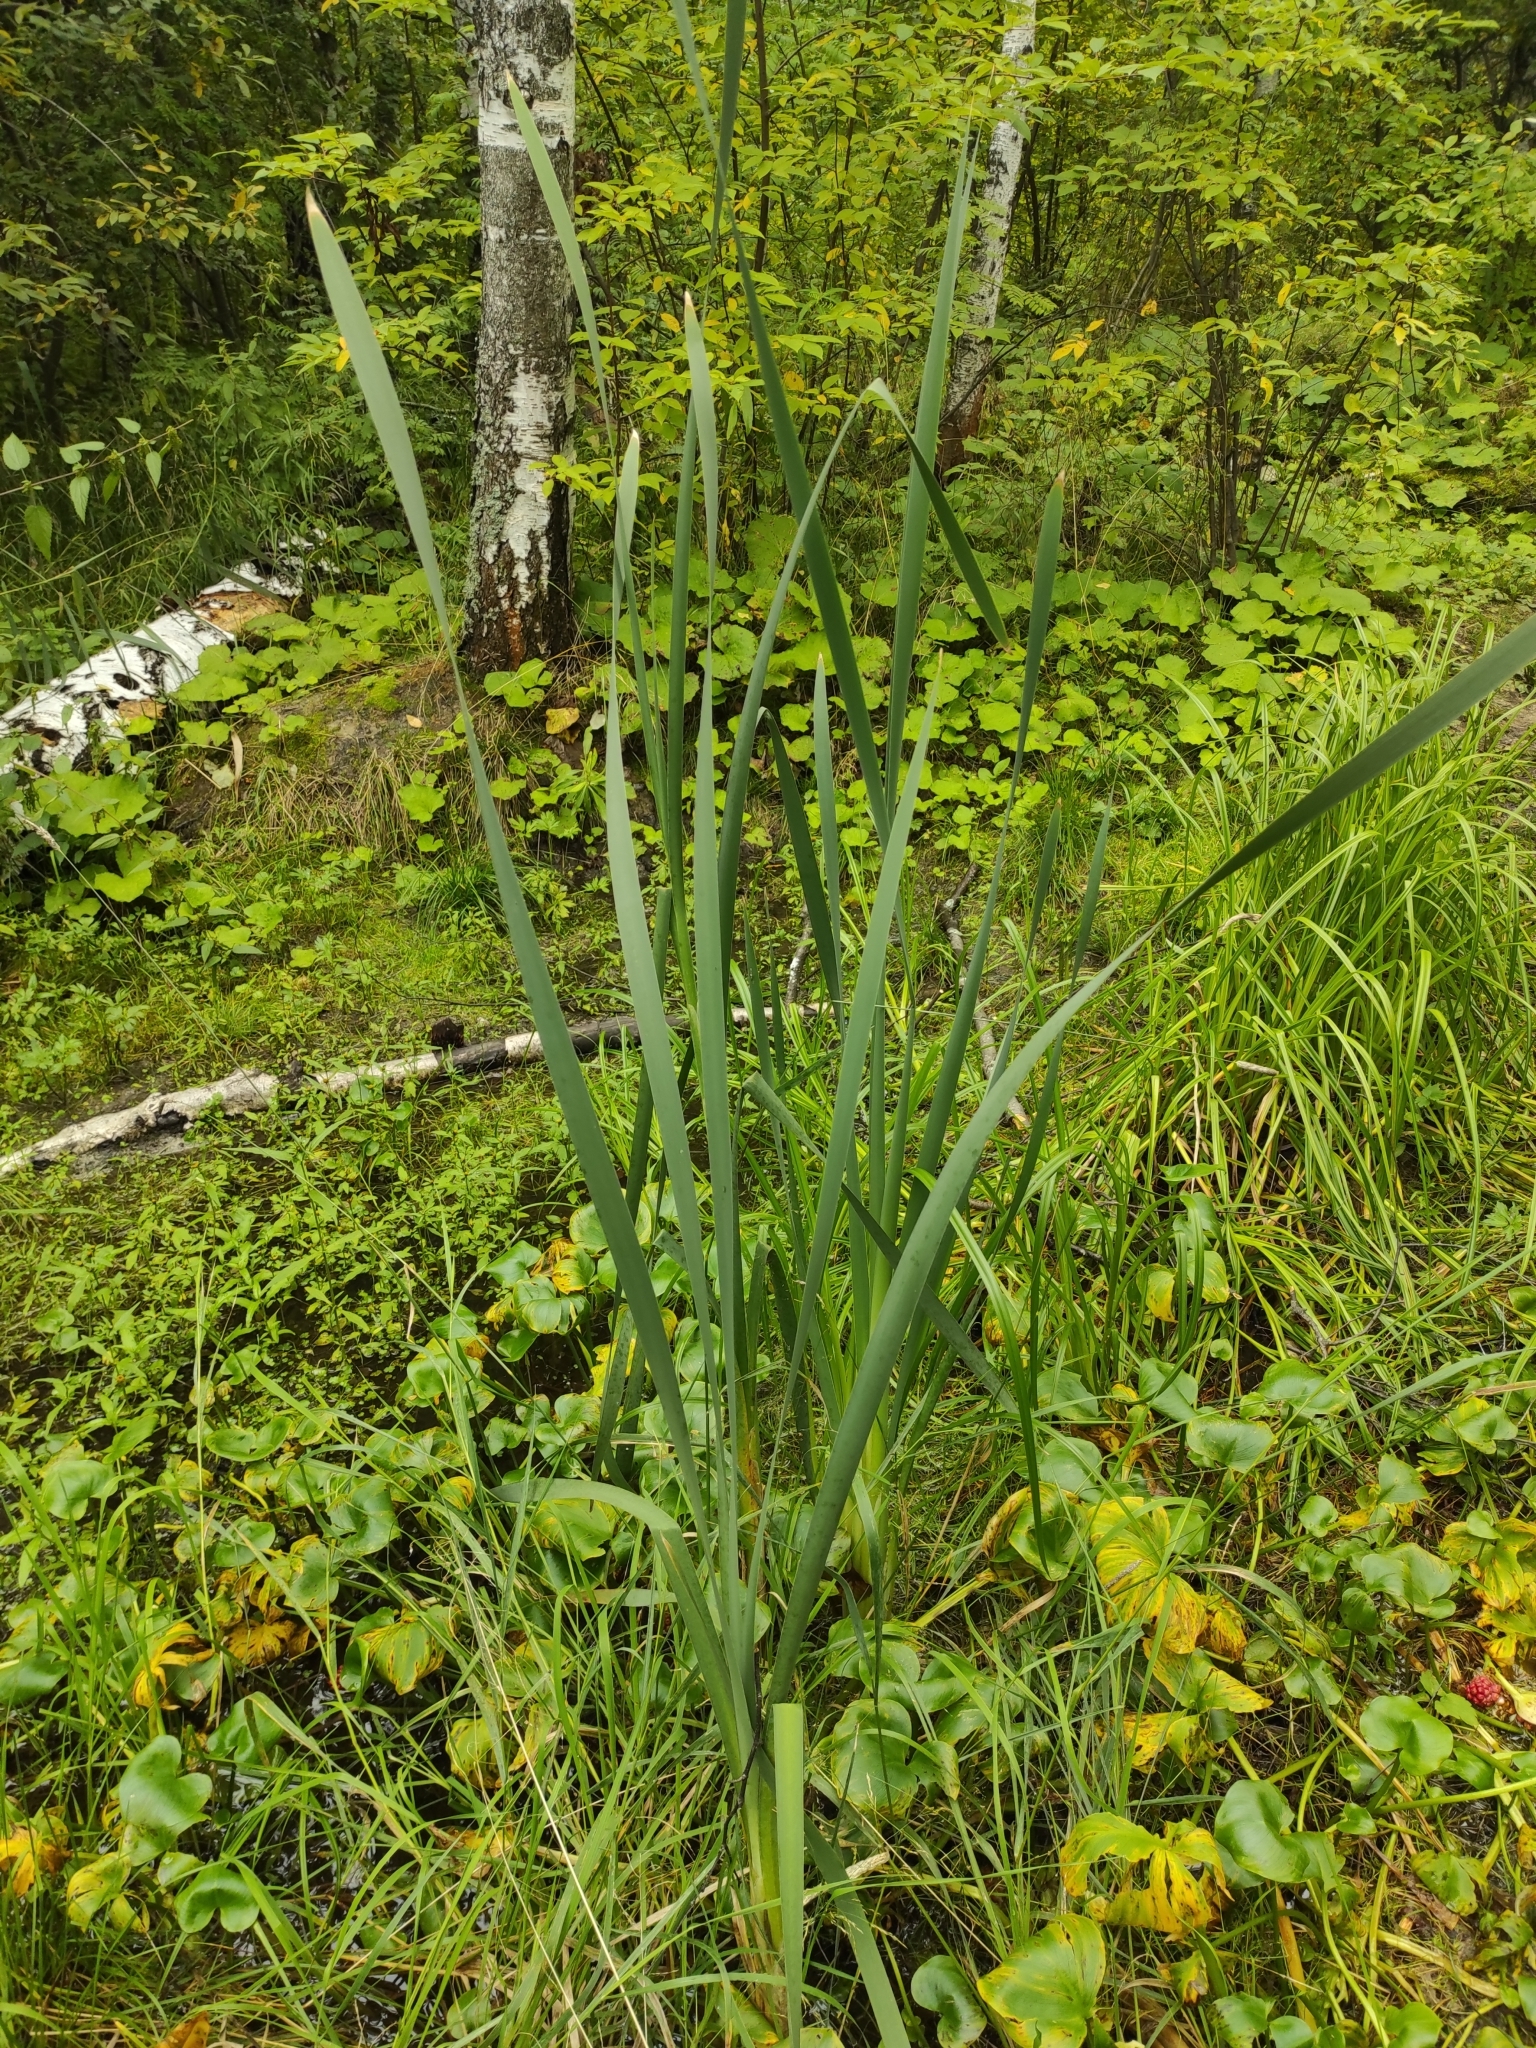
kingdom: Plantae
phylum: Tracheophyta
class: Liliopsida
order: Poales
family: Typhaceae
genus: Typha
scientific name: Typha latifolia
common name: Broadleaf cattail
